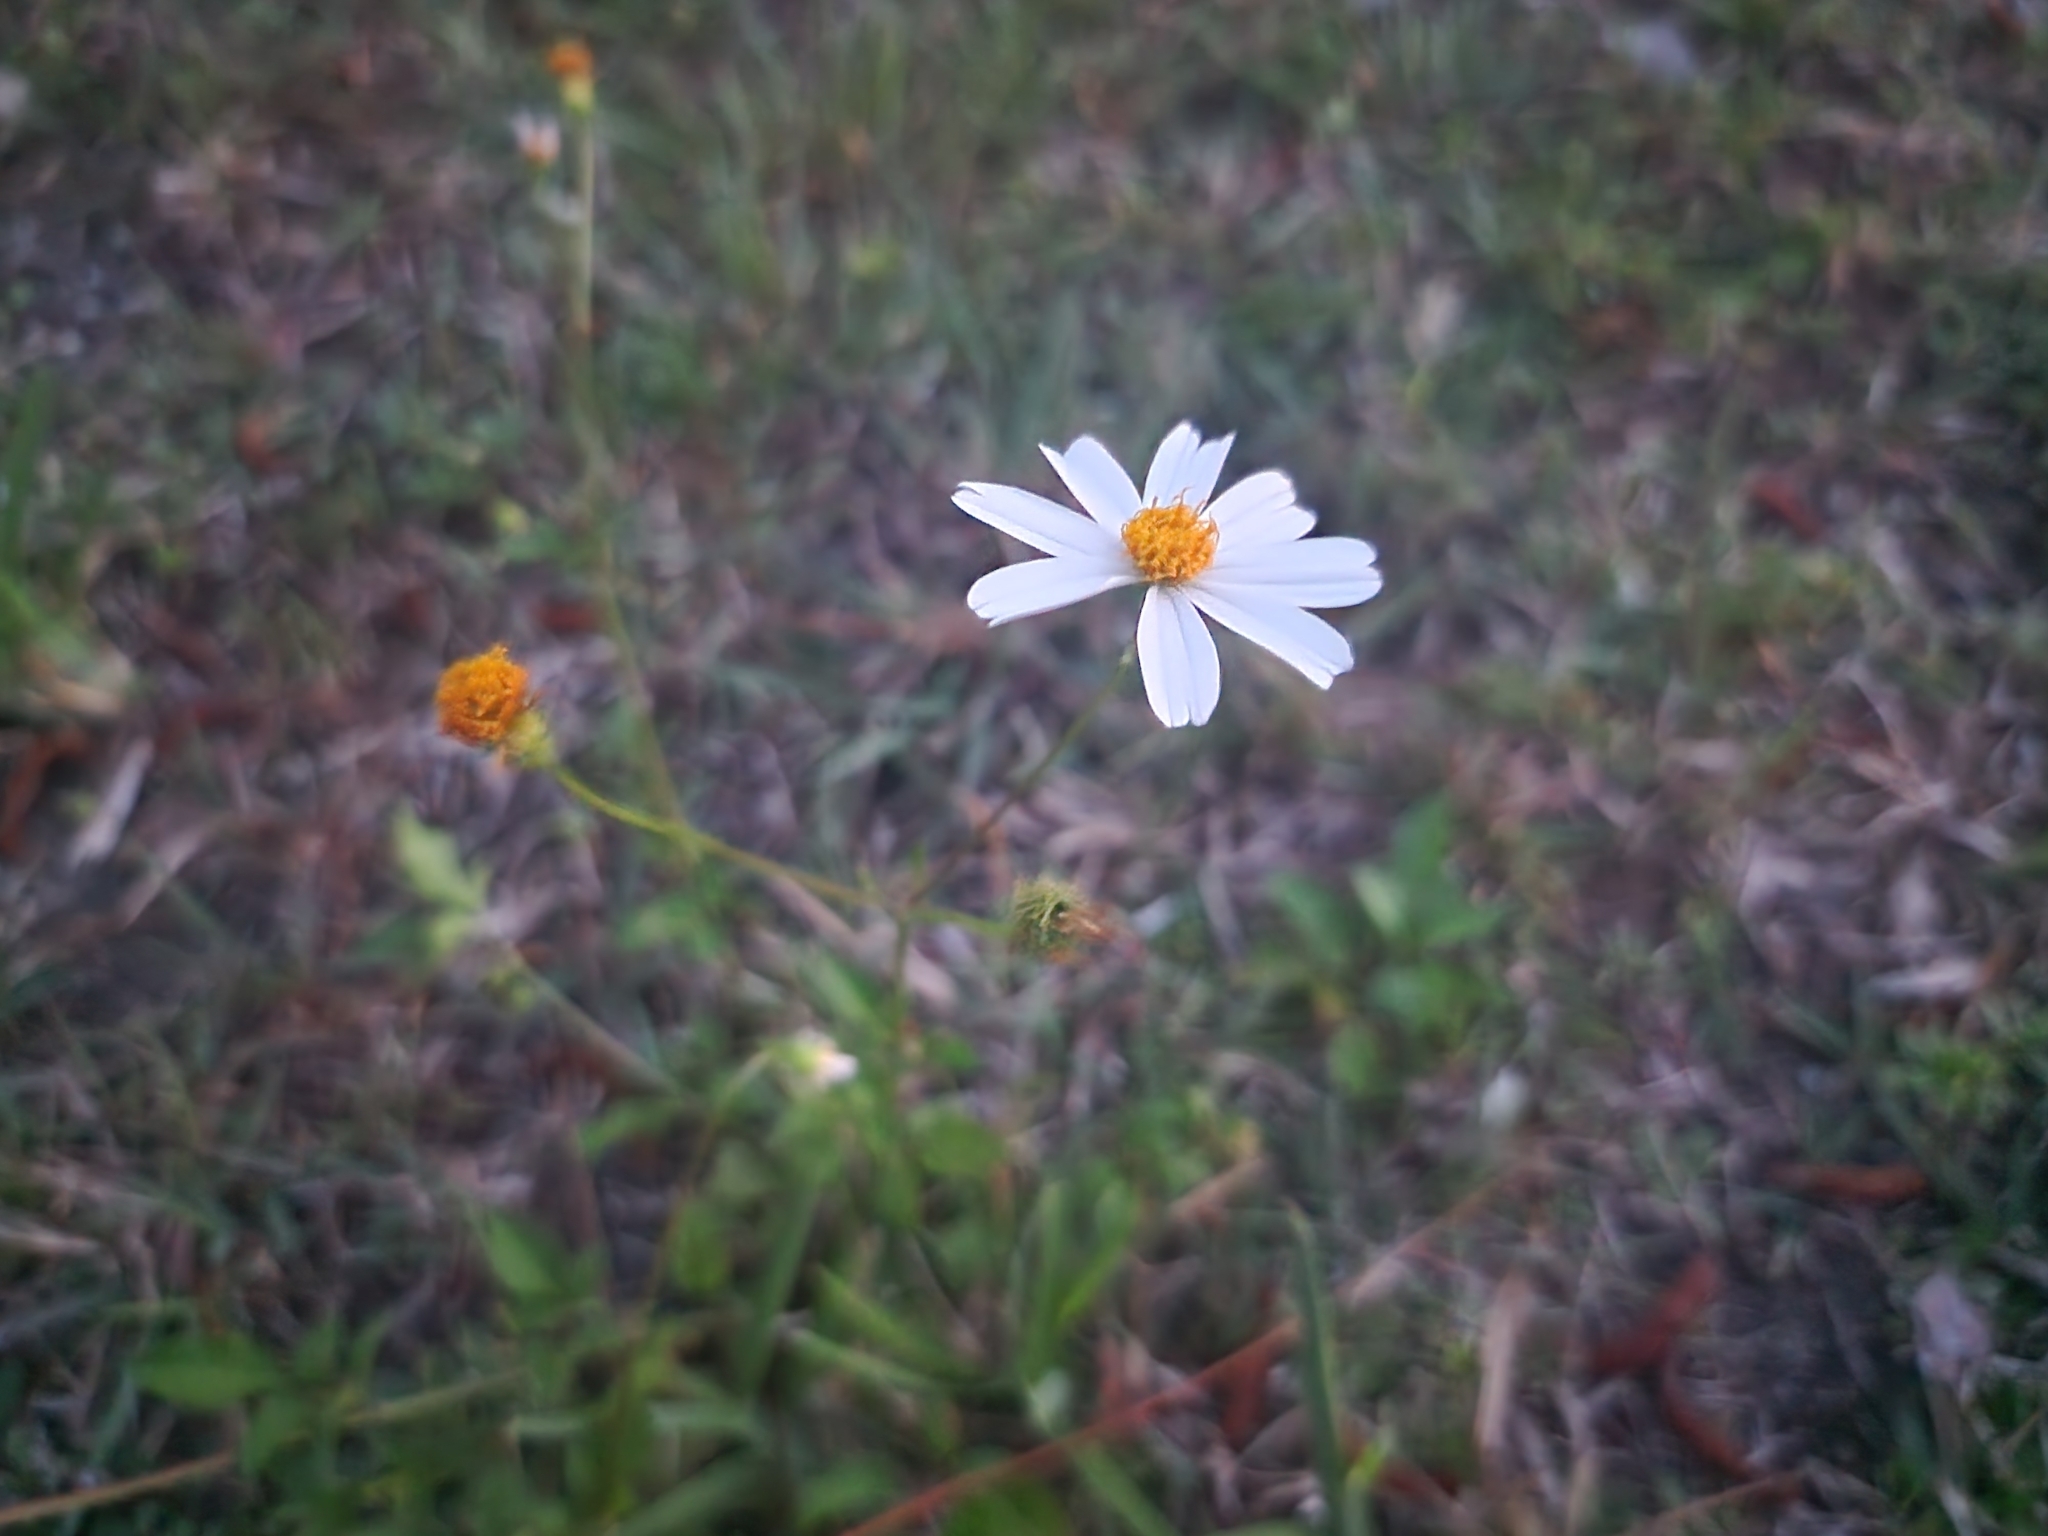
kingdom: Plantae
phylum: Tracheophyta
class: Magnoliopsida
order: Asterales
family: Asteraceae
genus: Bidens
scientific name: Bidens alba
